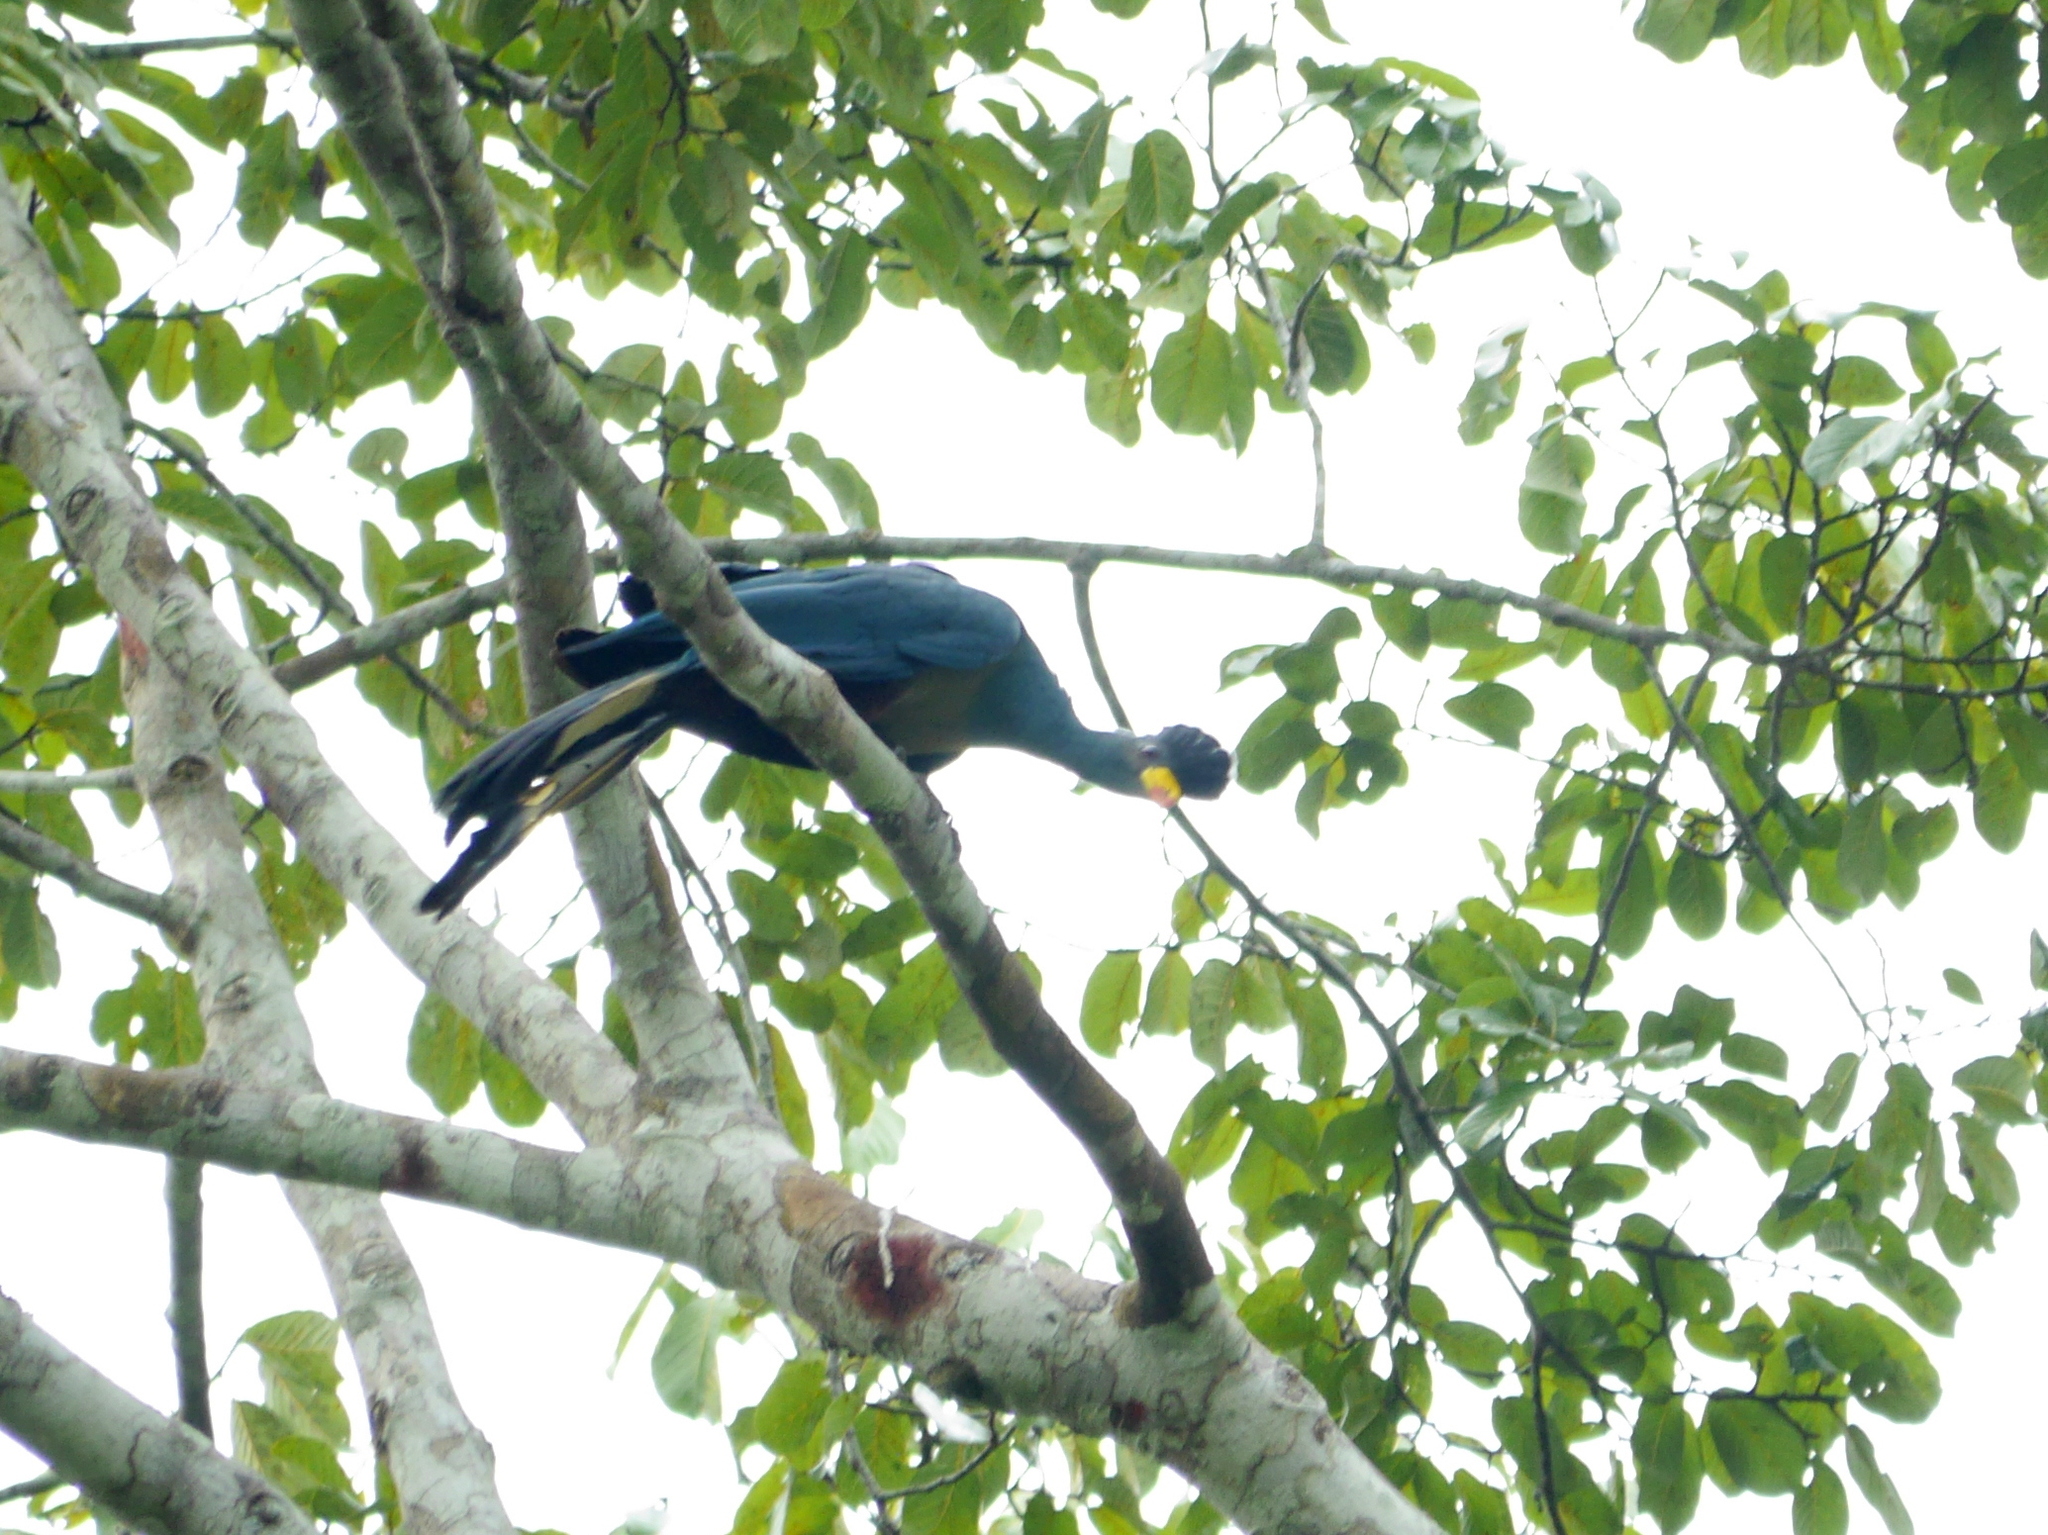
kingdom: Animalia
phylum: Chordata
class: Aves
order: Musophagiformes
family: Musophagidae
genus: Corythaeola
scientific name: Corythaeola cristata
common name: Great blue turaco
